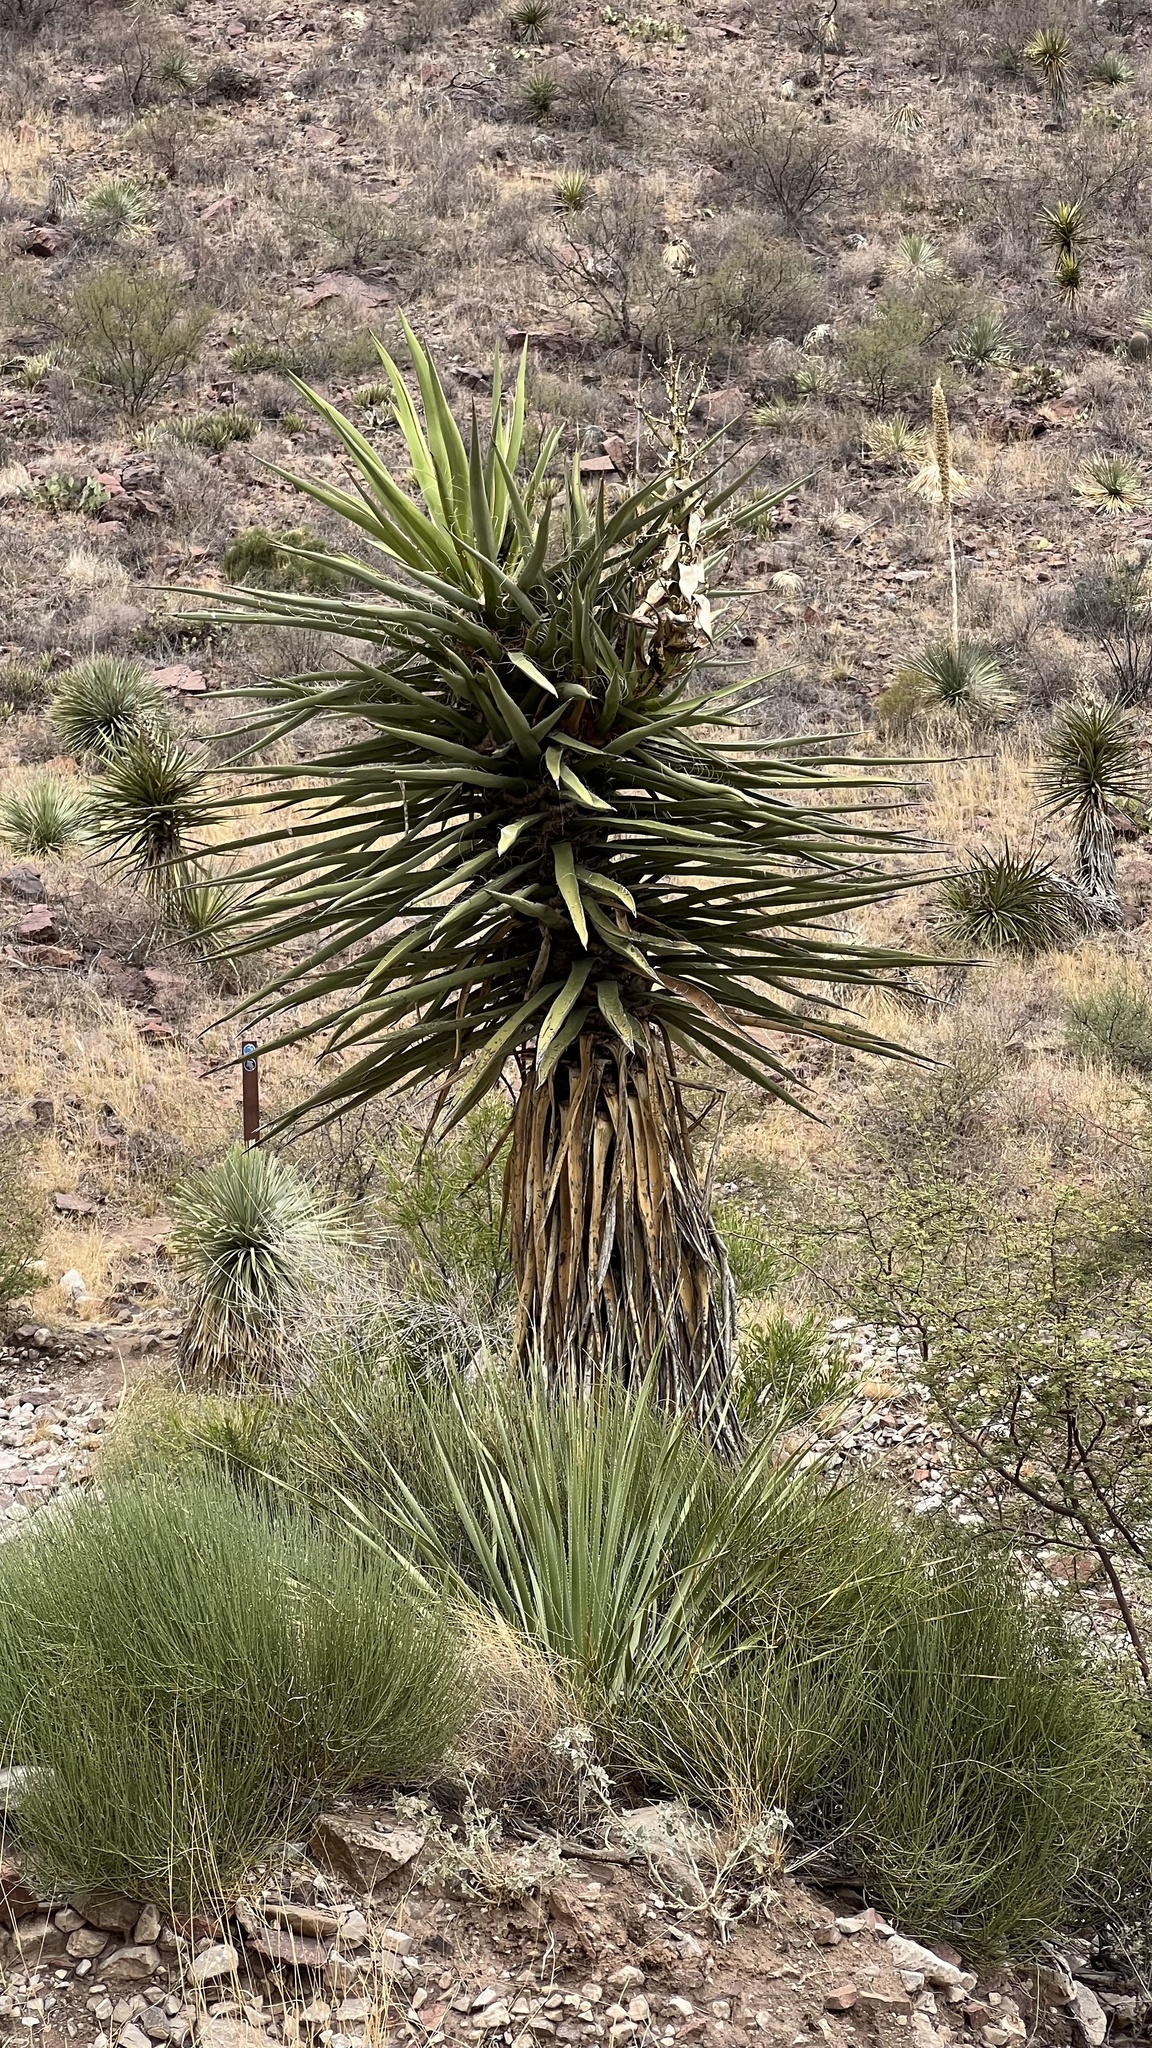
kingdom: Plantae
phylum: Tracheophyta
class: Liliopsida
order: Asparagales
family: Asparagaceae
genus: Yucca
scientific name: Yucca treculiana
